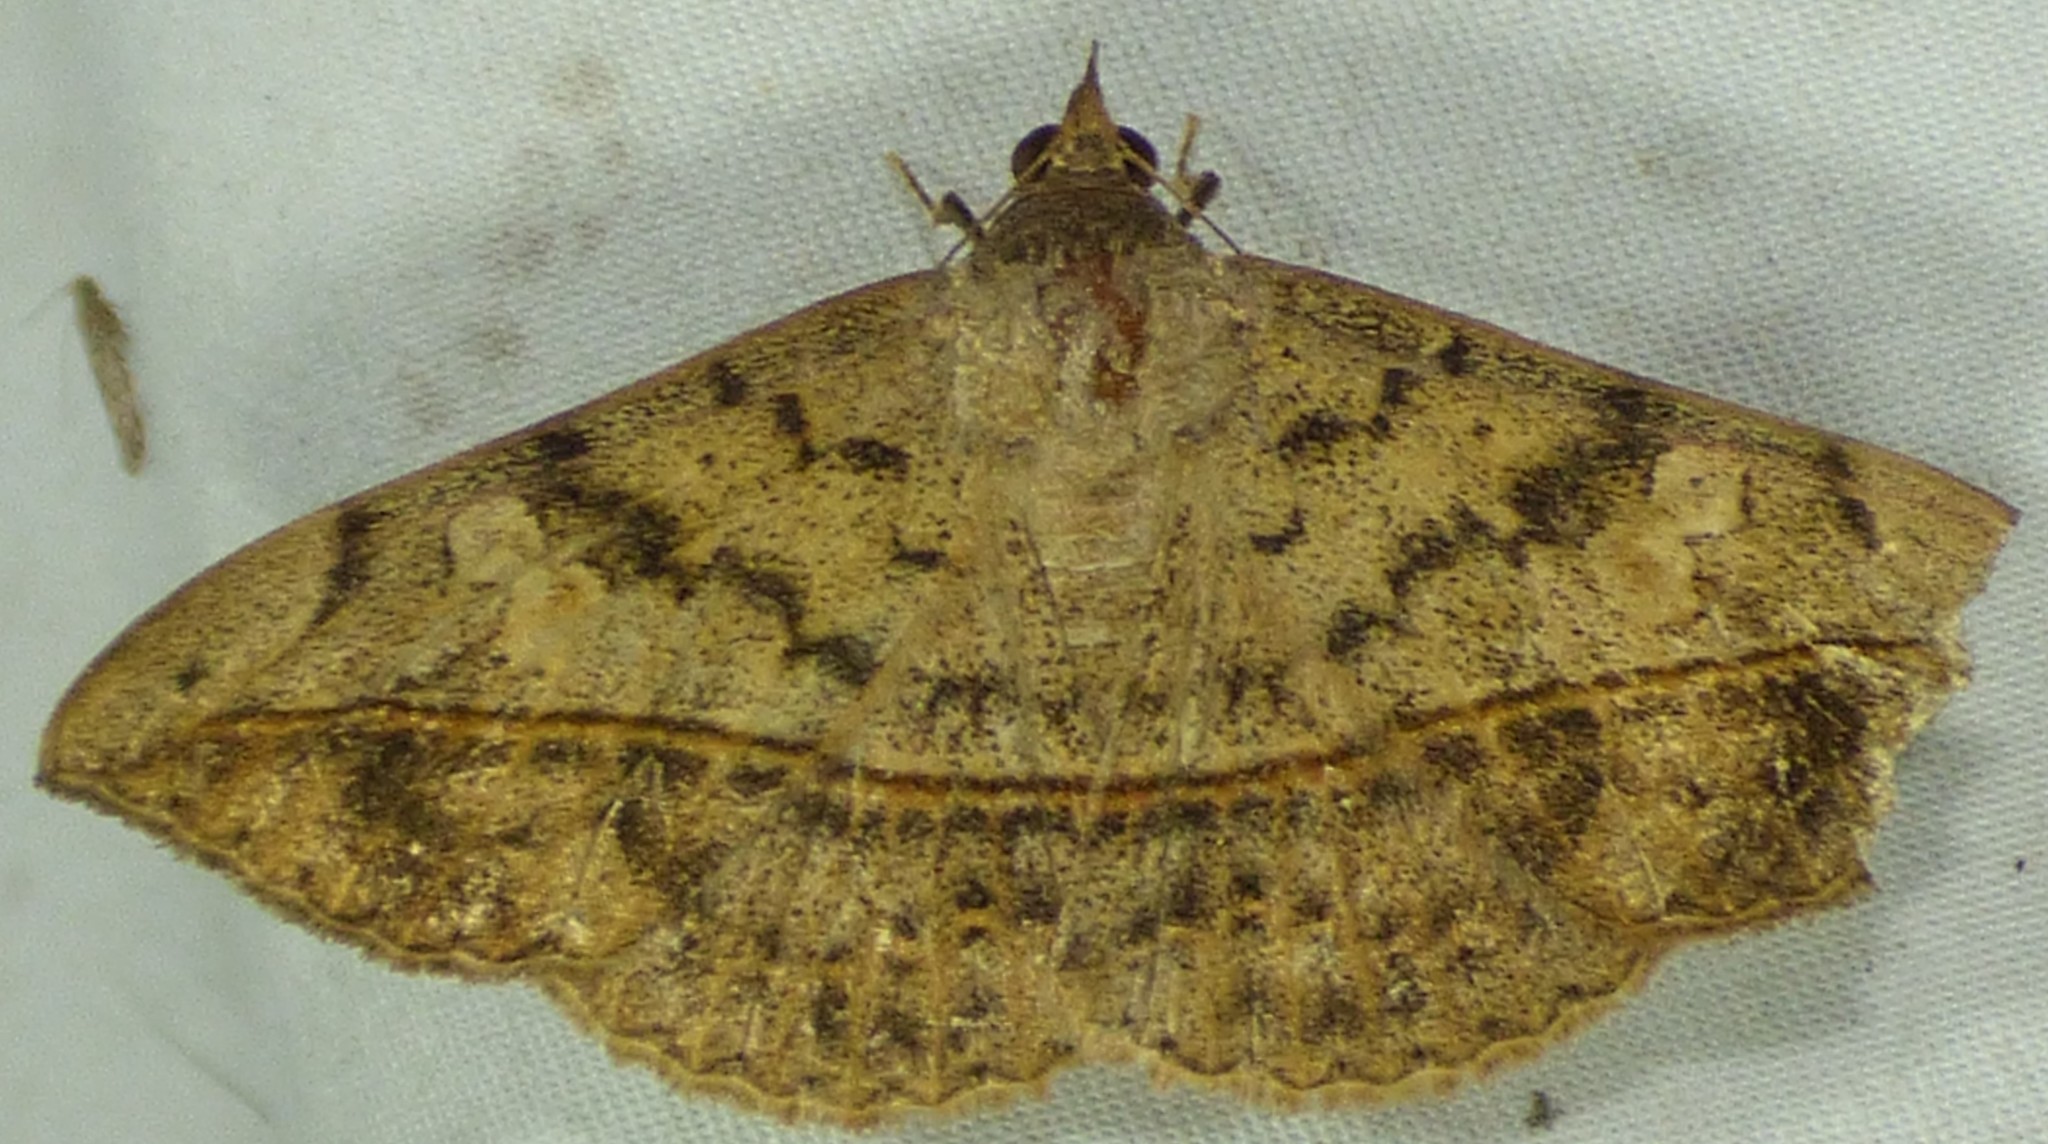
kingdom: Animalia
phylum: Arthropoda
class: Insecta
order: Lepidoptera
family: Erebidae
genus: Anticarsia
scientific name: Anticarsia gemmatalis
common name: Cutworm moth
